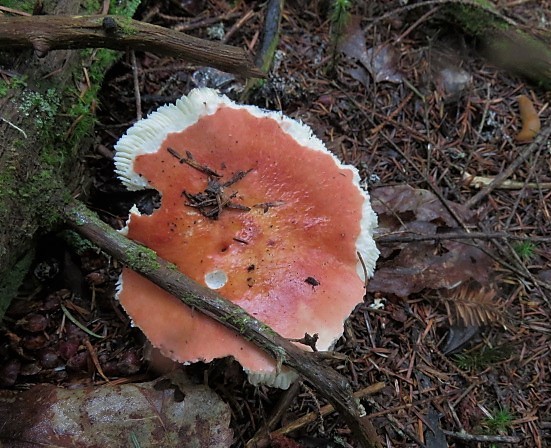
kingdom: Fungi
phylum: Basidiomycota
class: Agaricomycetes
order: Russulales
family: Russulaceae
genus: Russula
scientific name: Russula
